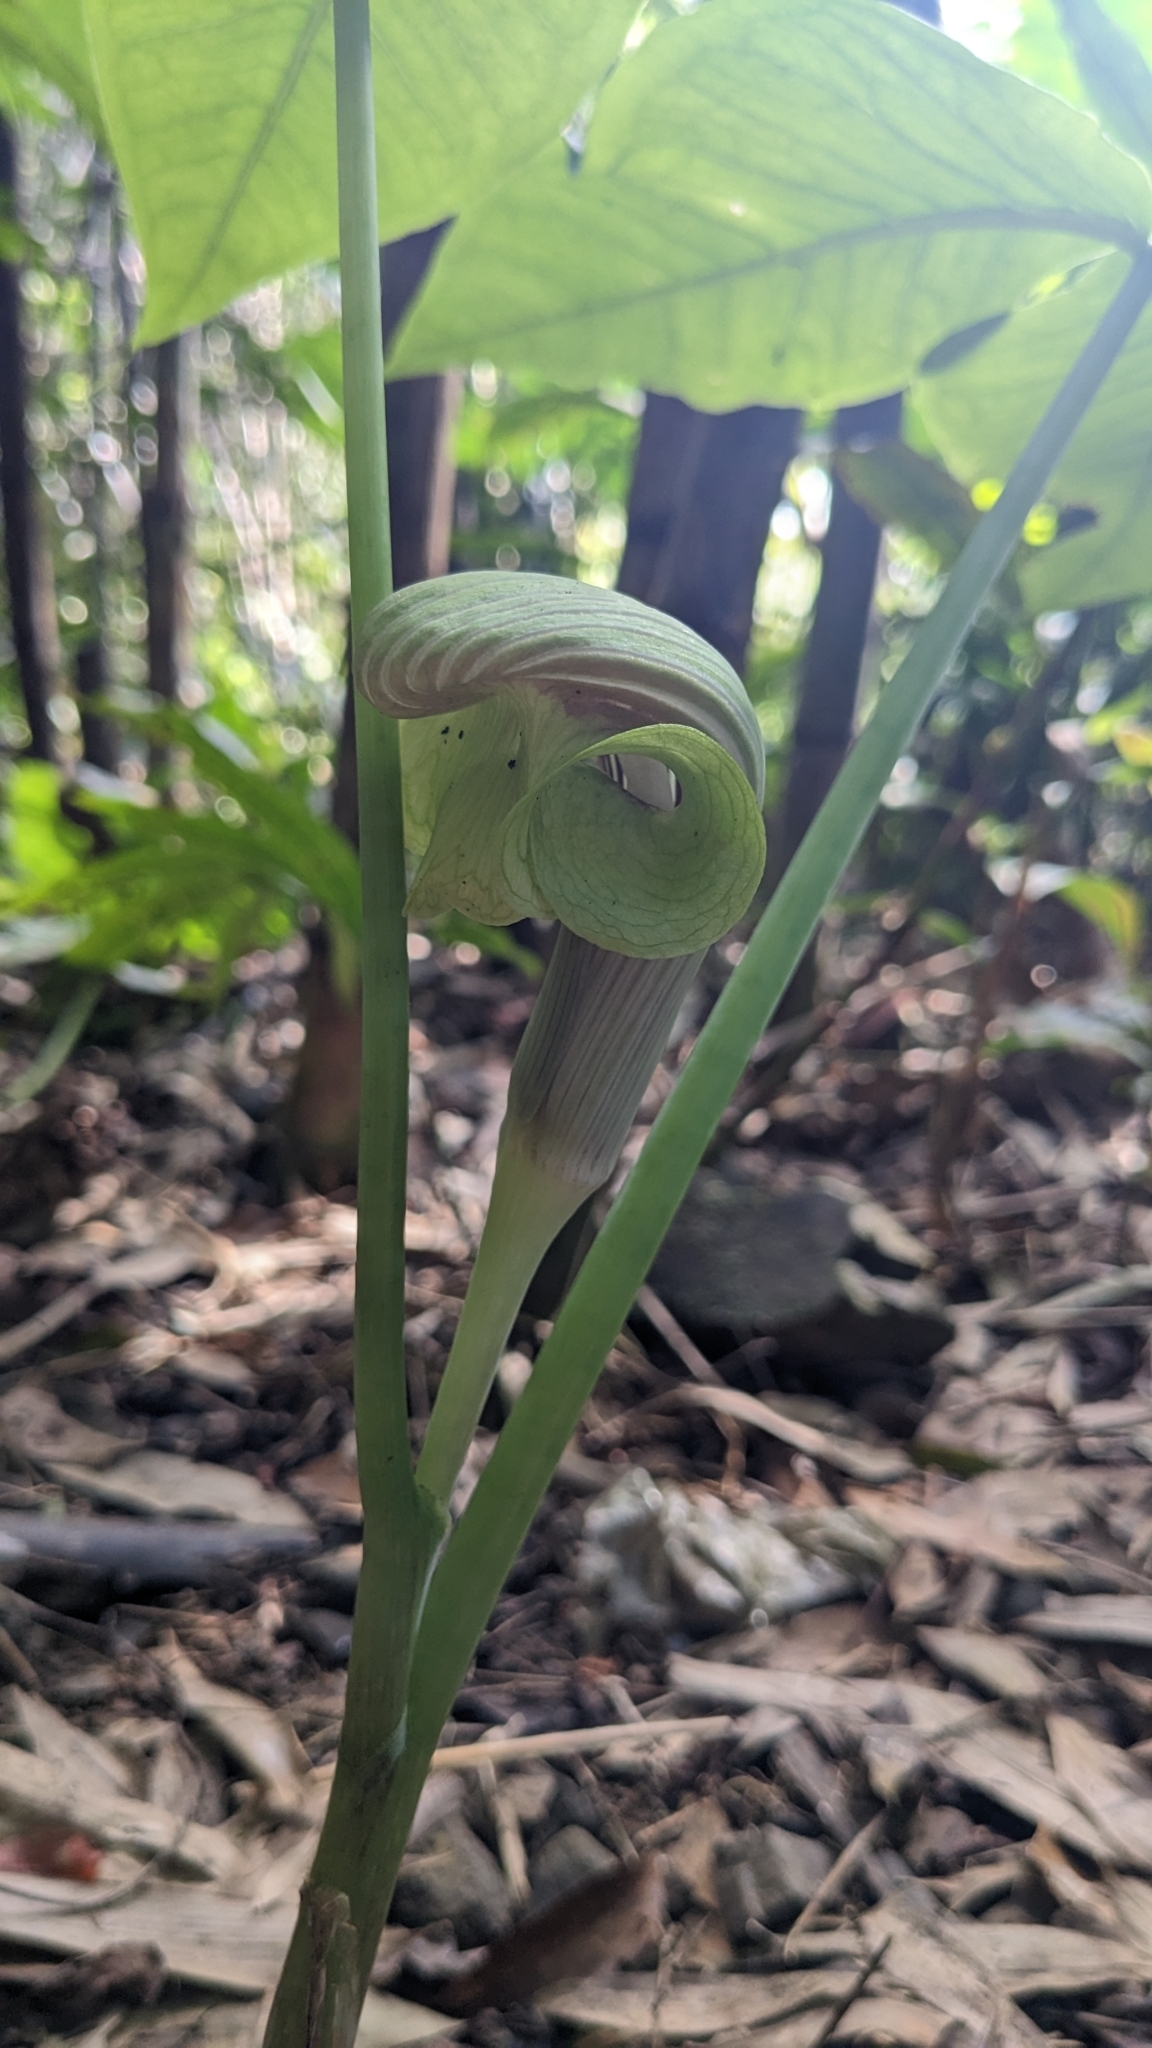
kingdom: Plantae
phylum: Tracheophyta
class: Liliopsida
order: Alismatales
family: Araceae
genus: Arisaema
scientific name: Arisaema ringens
